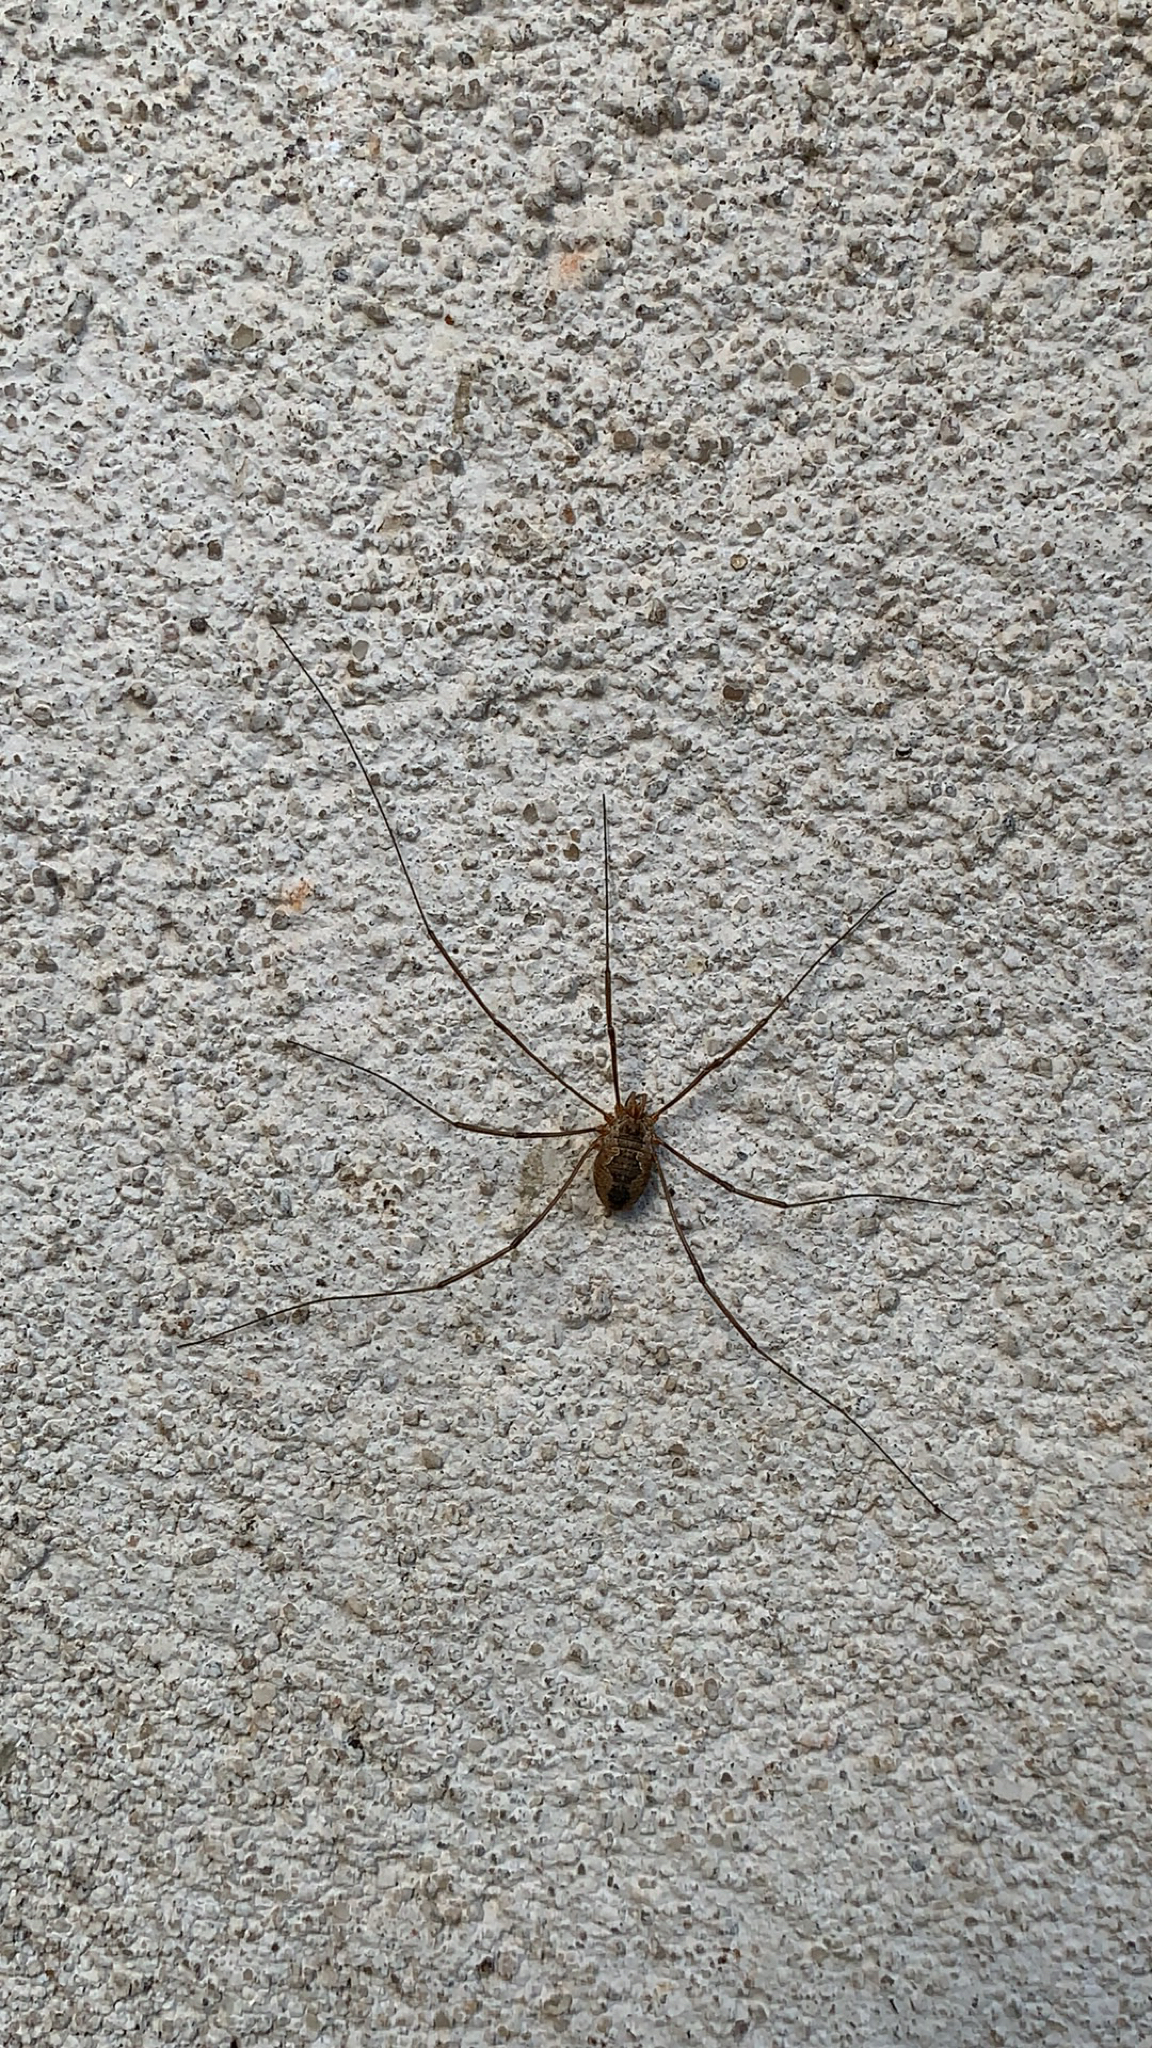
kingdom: Animalia
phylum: Arthropoda
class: Arachnida
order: Opiliones
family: Phalangiidae
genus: Phalangium
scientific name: Phalangium opilio
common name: Daddy longleg
